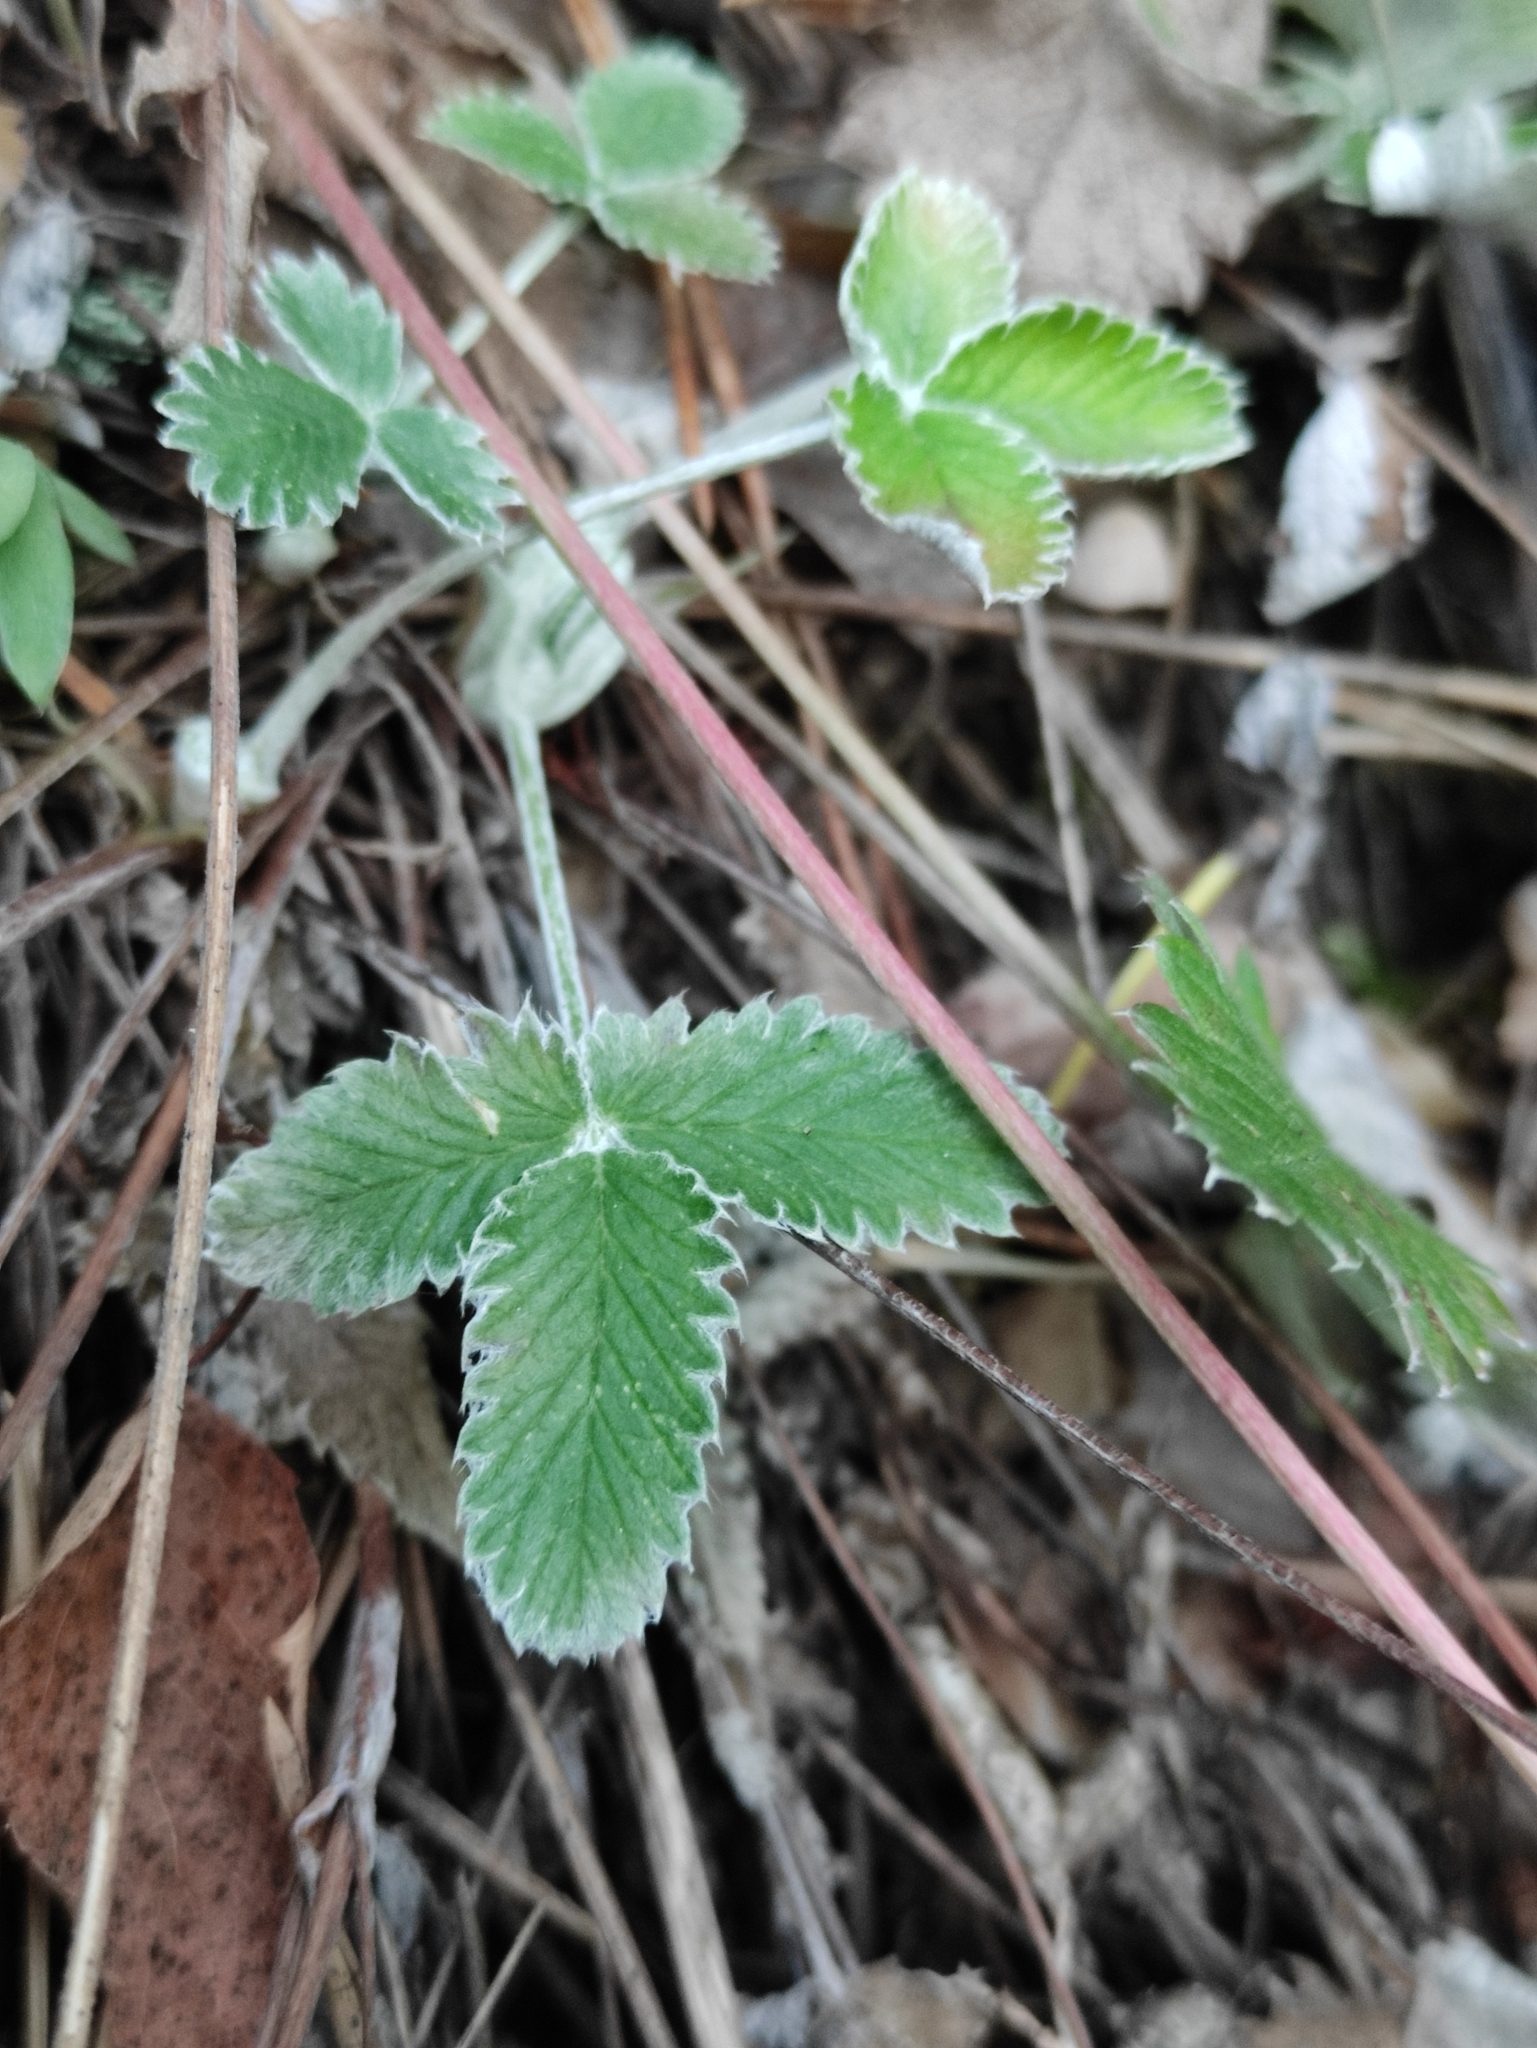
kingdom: Plantae
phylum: Tracheophyta
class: Magnoliopsida
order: Rosales
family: Rosaceae
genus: Potentilla
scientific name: Potentilla arenosa
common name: Bluff cinquefoil
